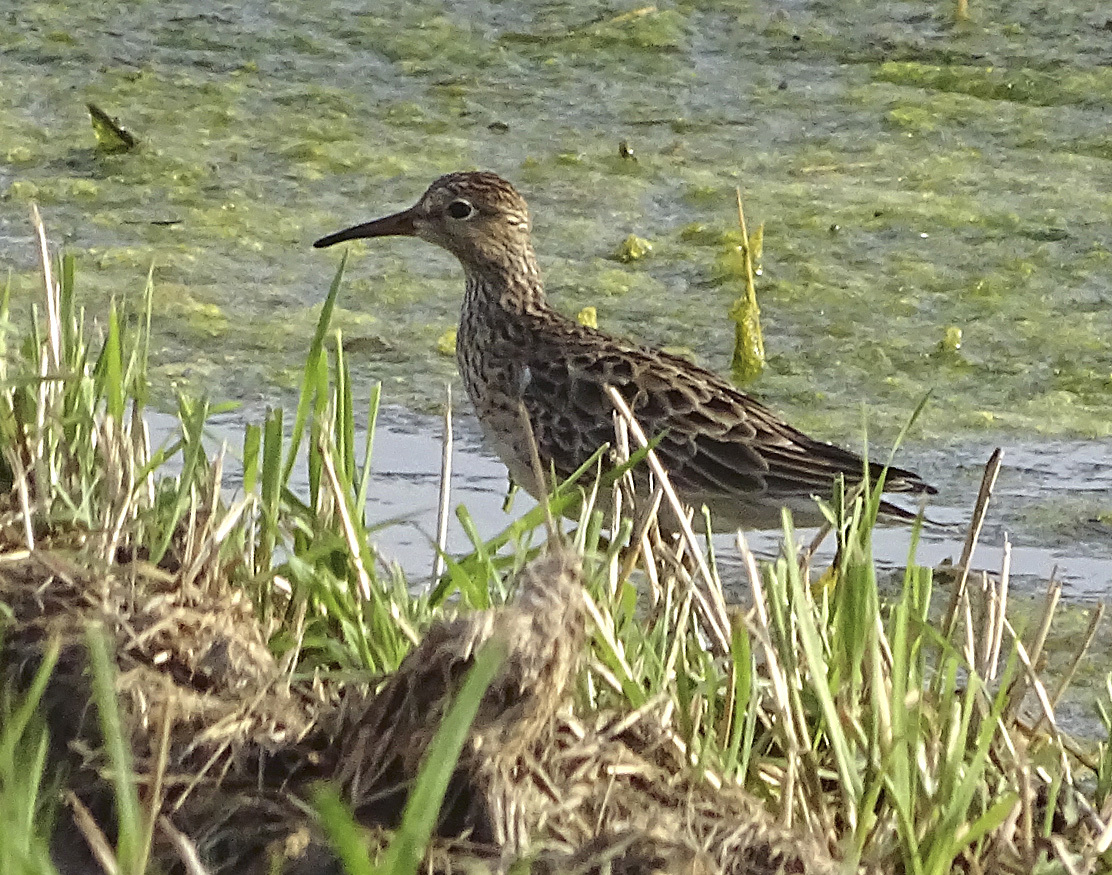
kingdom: Animalia
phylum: Chordata
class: Aves
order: Charadriiformes
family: Scolopacidae
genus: Calidris
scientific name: Calidris melanotos
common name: Pectoral sandpiper
